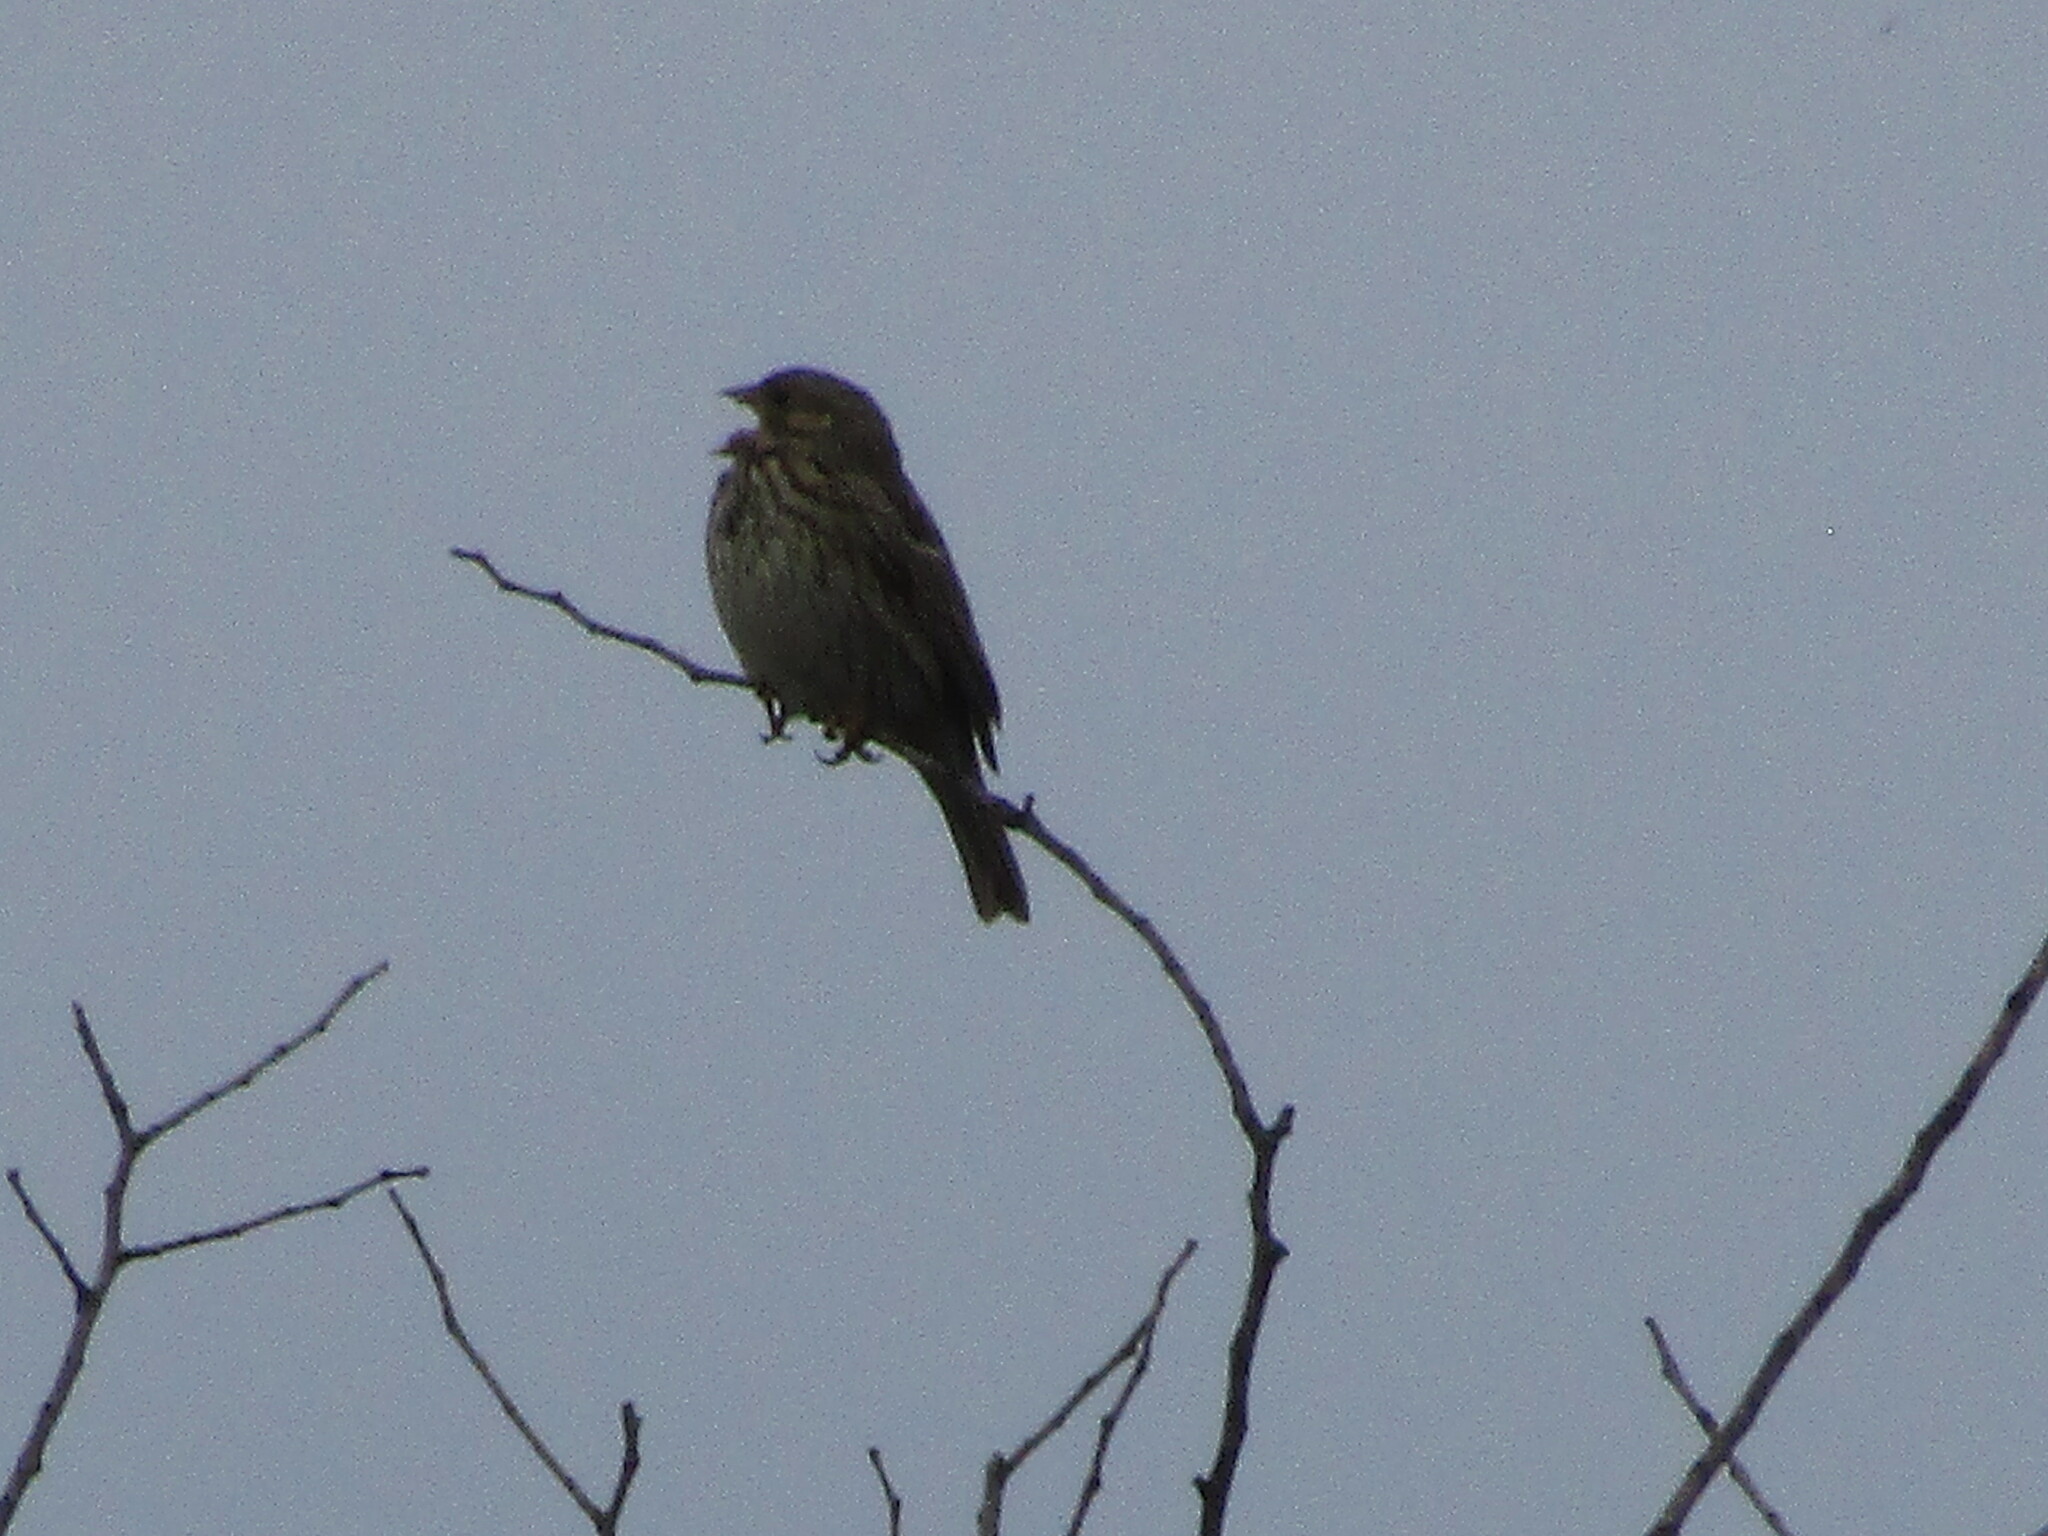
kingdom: Animalia
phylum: Chordata
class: Aves
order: Passeriformes
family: Emberizidae
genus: Emberiza
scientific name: Emberiza calandra
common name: Corn bunting
